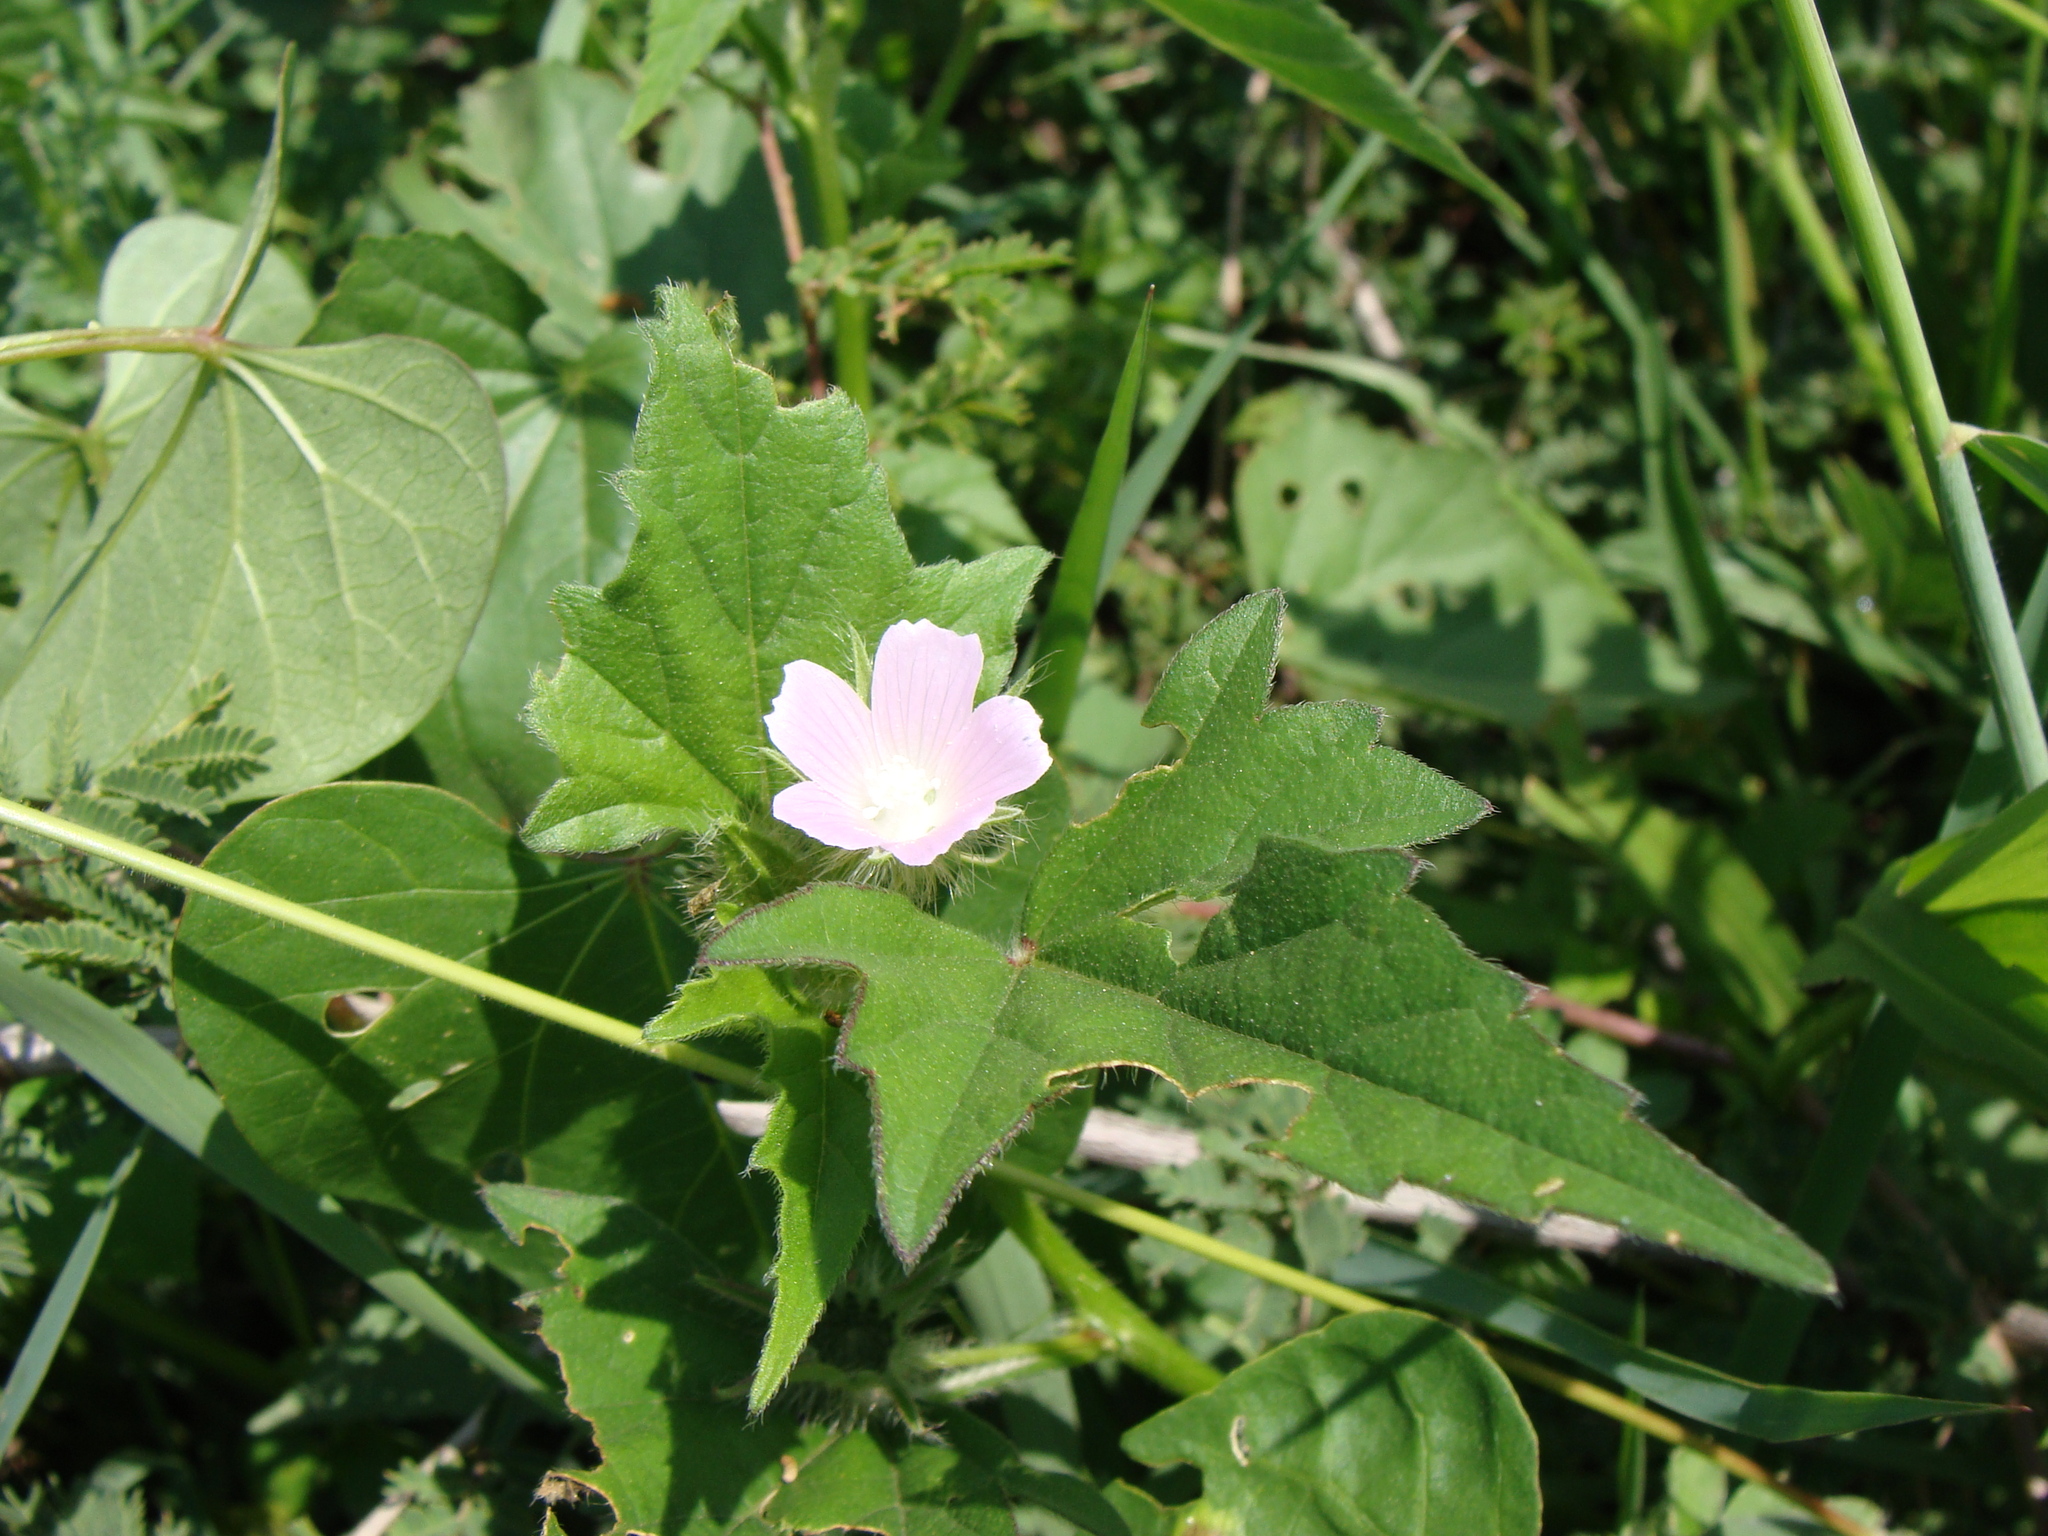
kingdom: Plantae
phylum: Tracheophyta
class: Magnoliopsida
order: Malvales
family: Malvaceae
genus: Anoda
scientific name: Anoda cristata
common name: Spurred anoda
